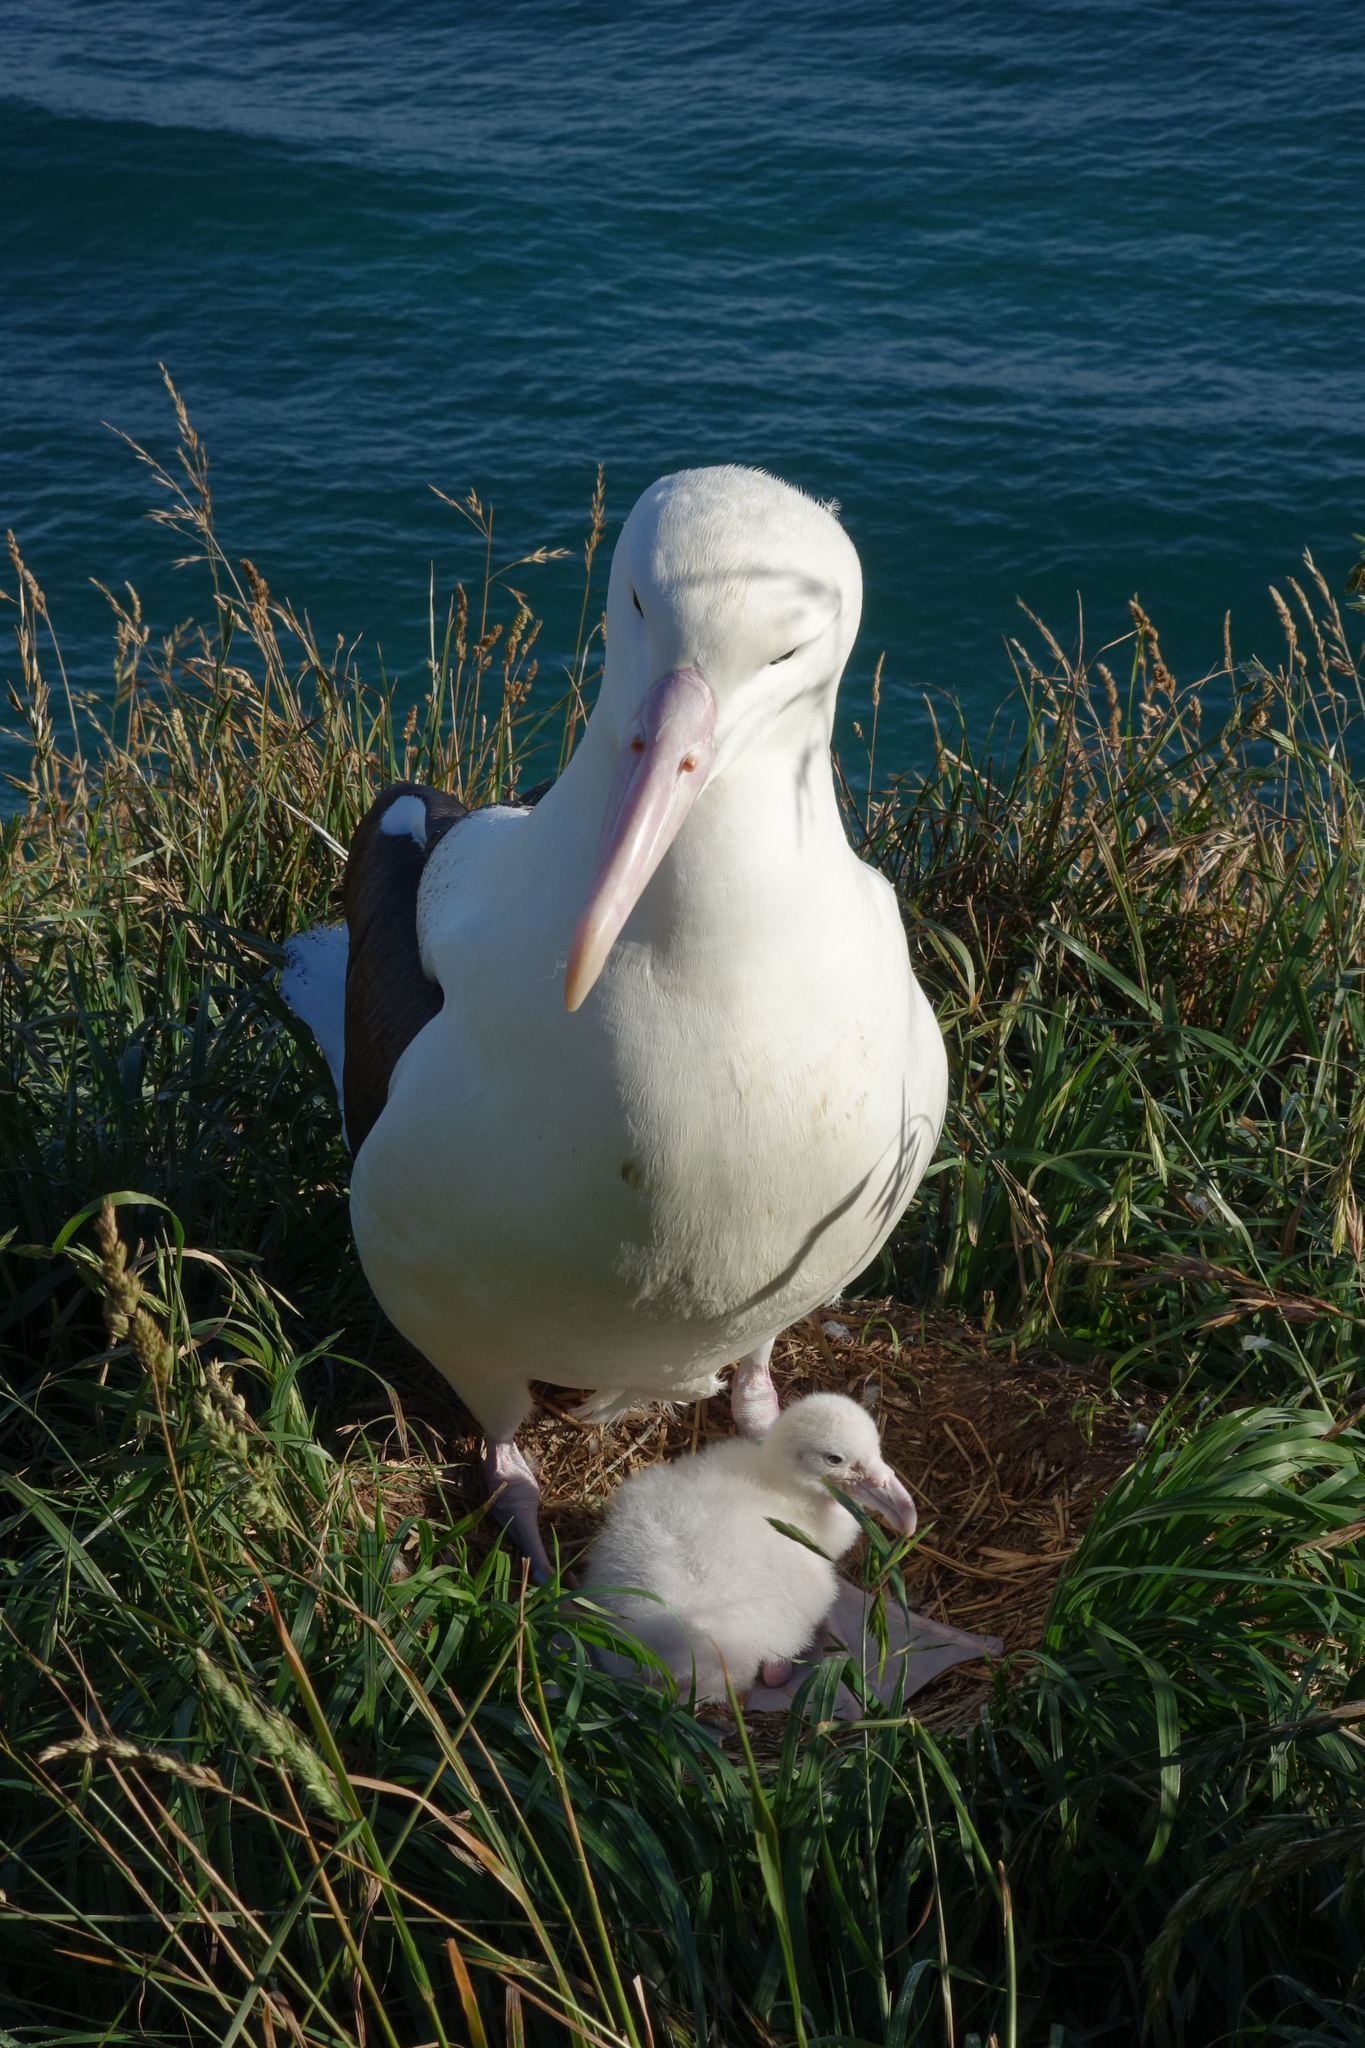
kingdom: Animalia
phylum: Chordata
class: Aves
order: Procellariiformes
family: Diomedeidae
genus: Diomedea
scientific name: Diomedea sanfordi
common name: Northern royal albatross
